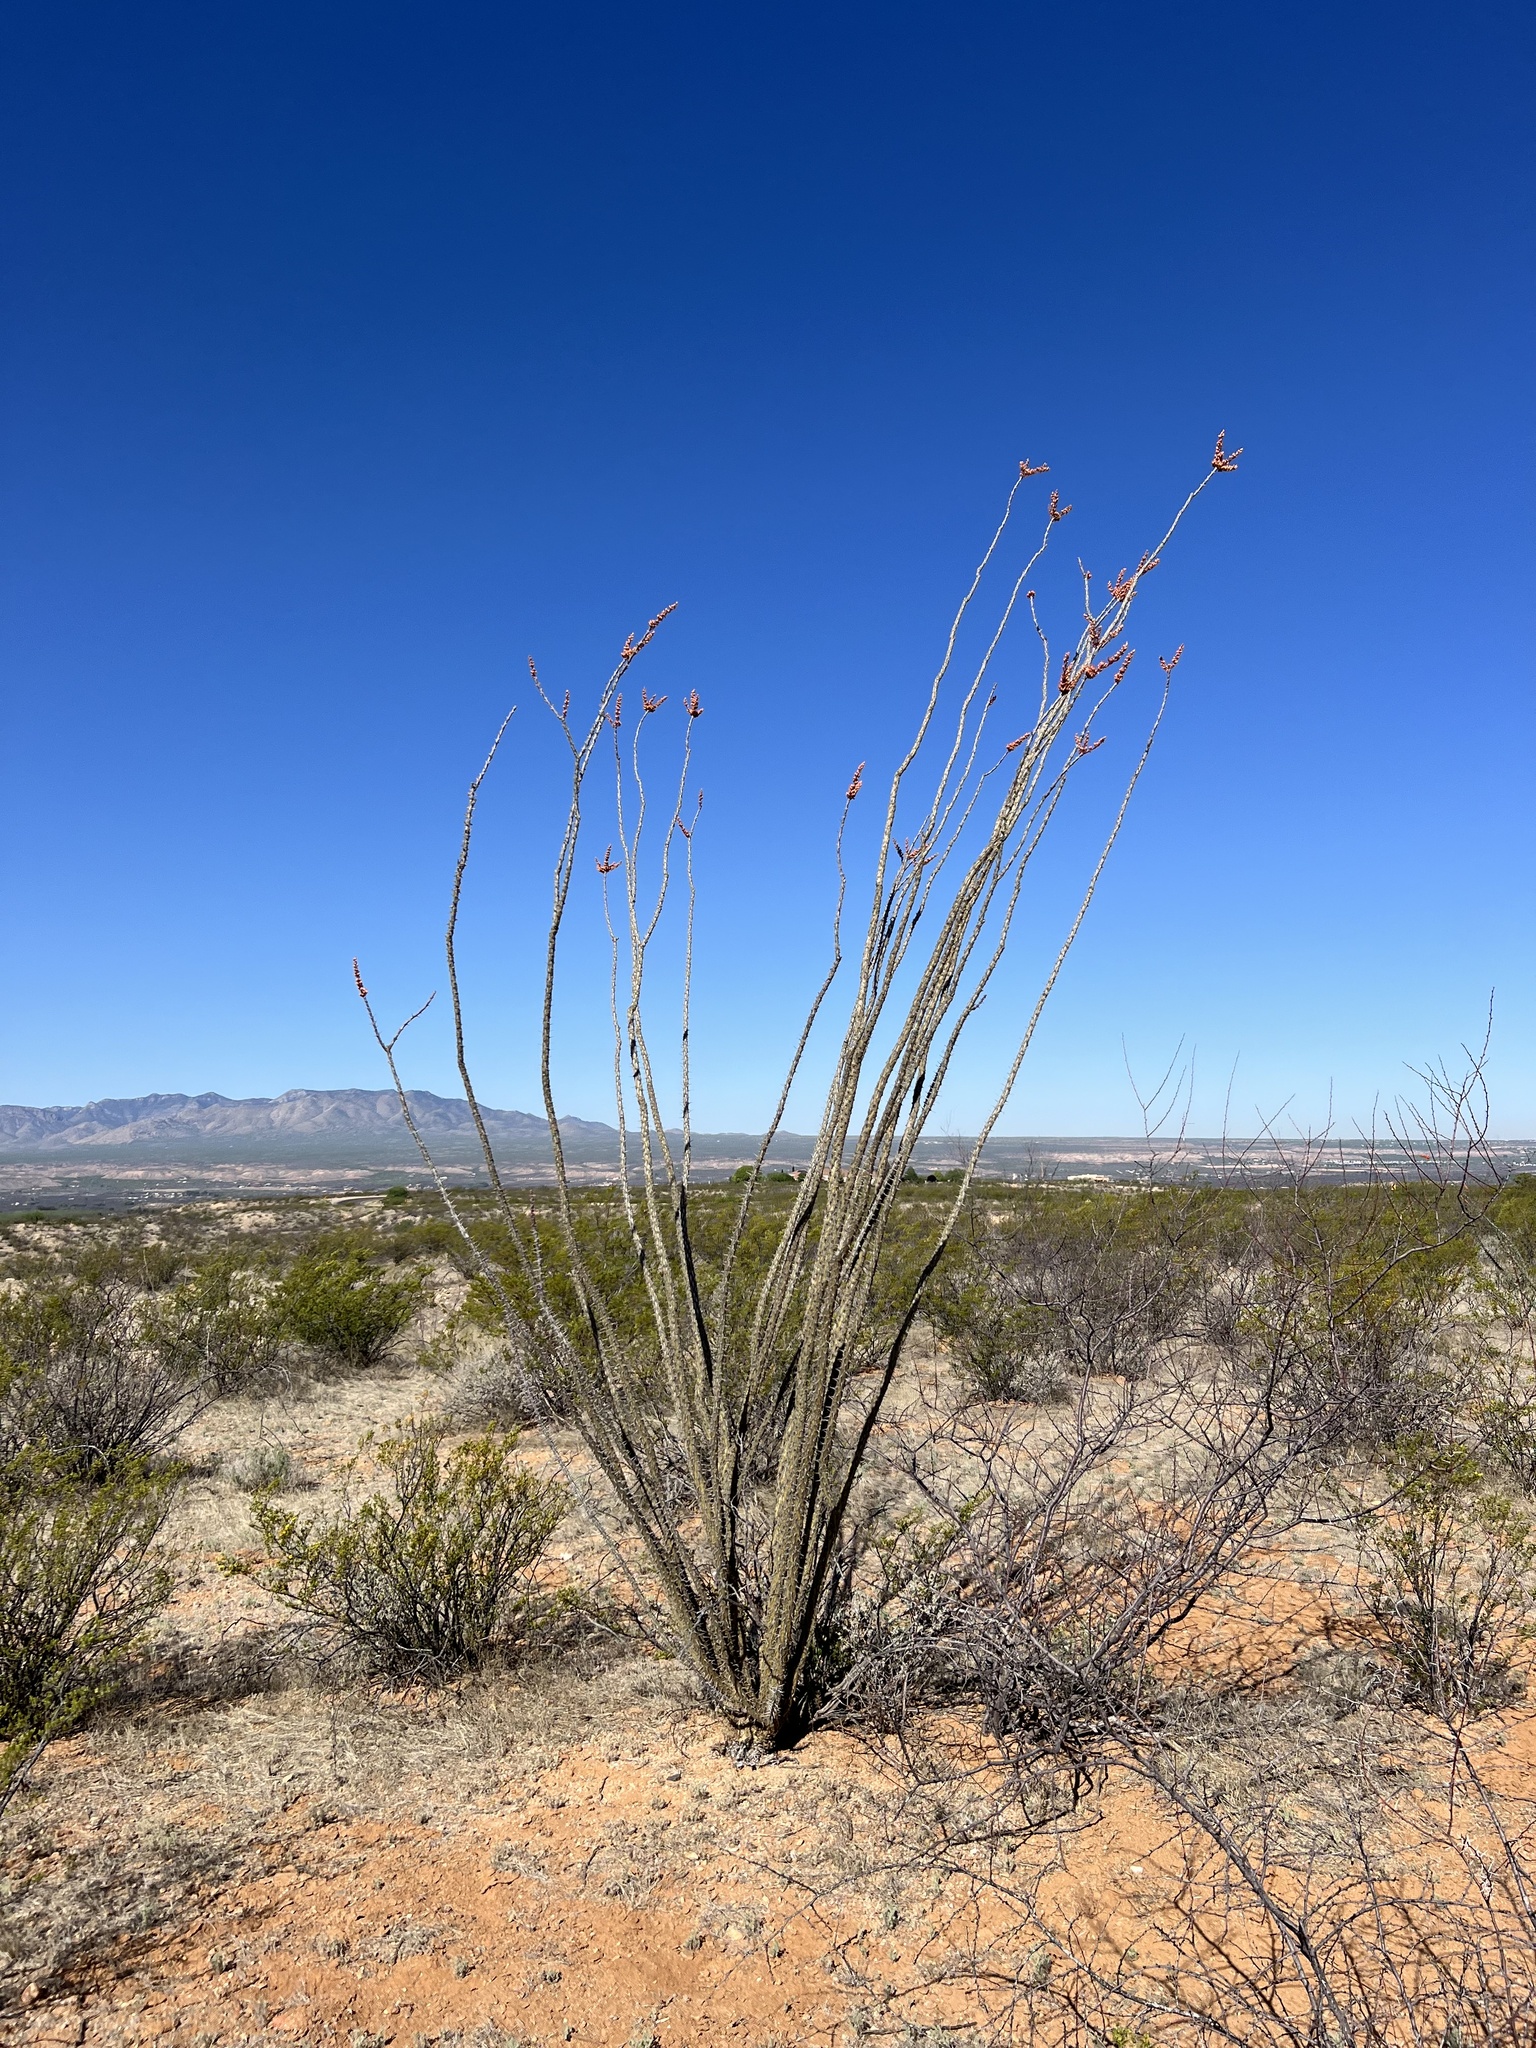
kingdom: Plantae
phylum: Tracheophyta
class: Magnoliopsida
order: Ericales
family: Fouquieriaceae
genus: Fouquieria
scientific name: Fouquieria splendens
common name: Vine-cactus
